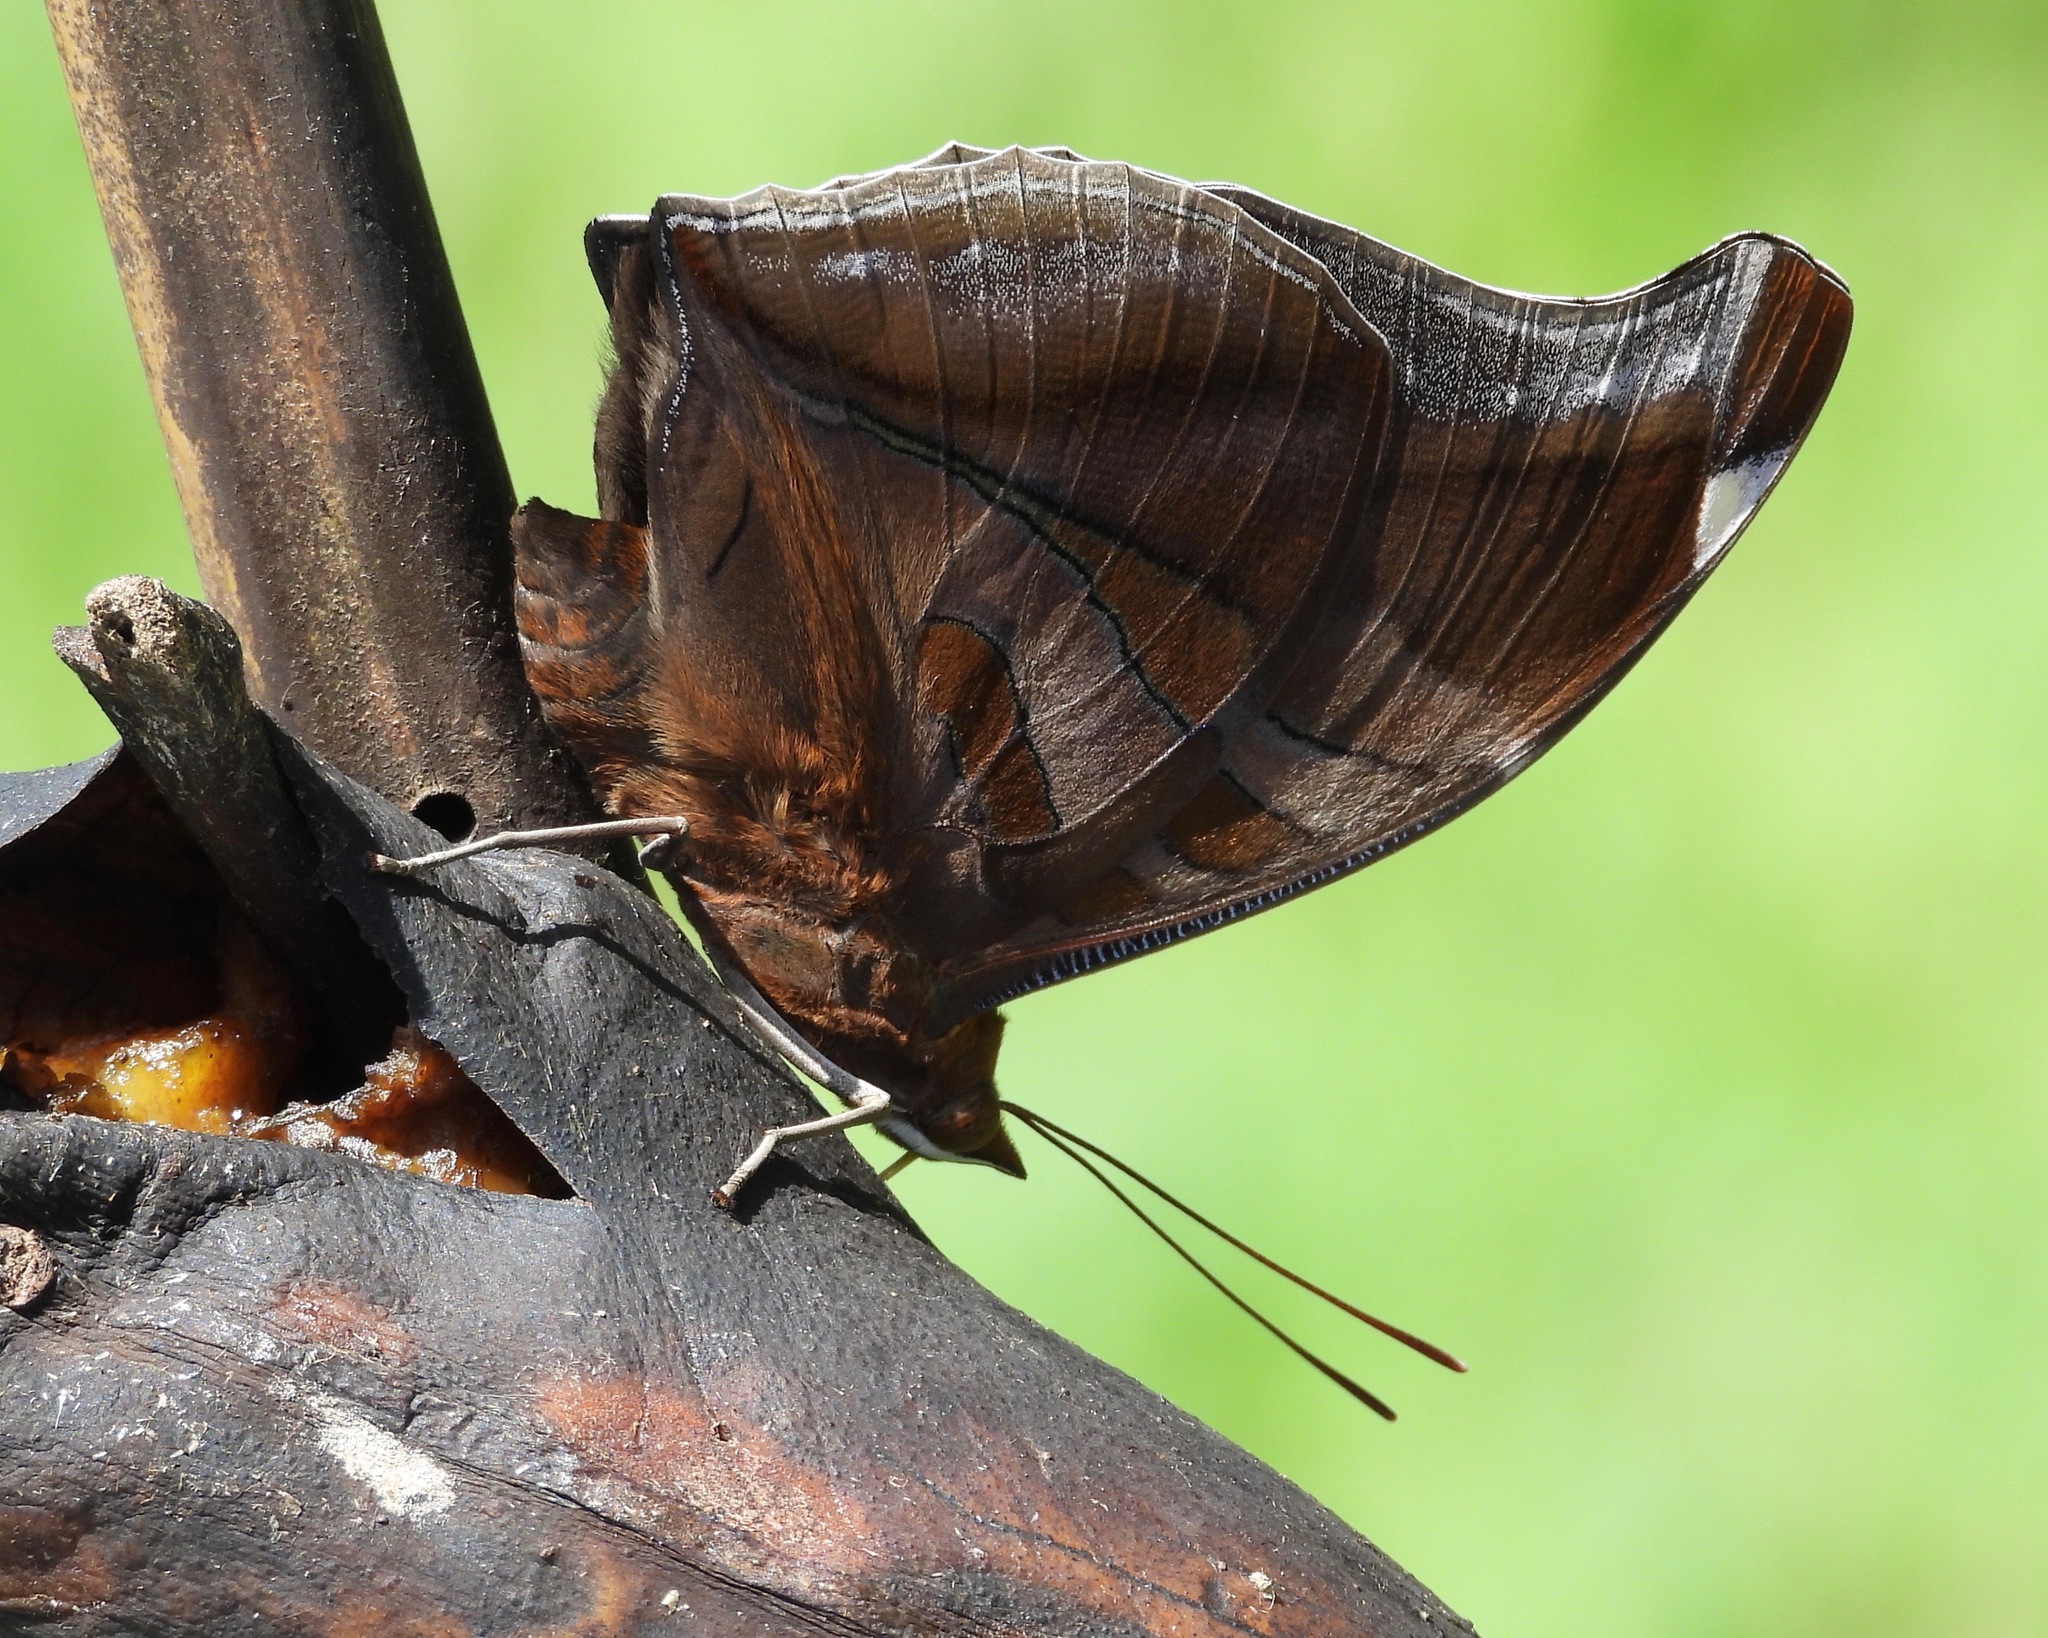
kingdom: Animalia
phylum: Arthropoda
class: Insecta
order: Lepidoptera
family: Nymphalidae
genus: Historis
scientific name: Historis odius
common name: Orion cecropian
